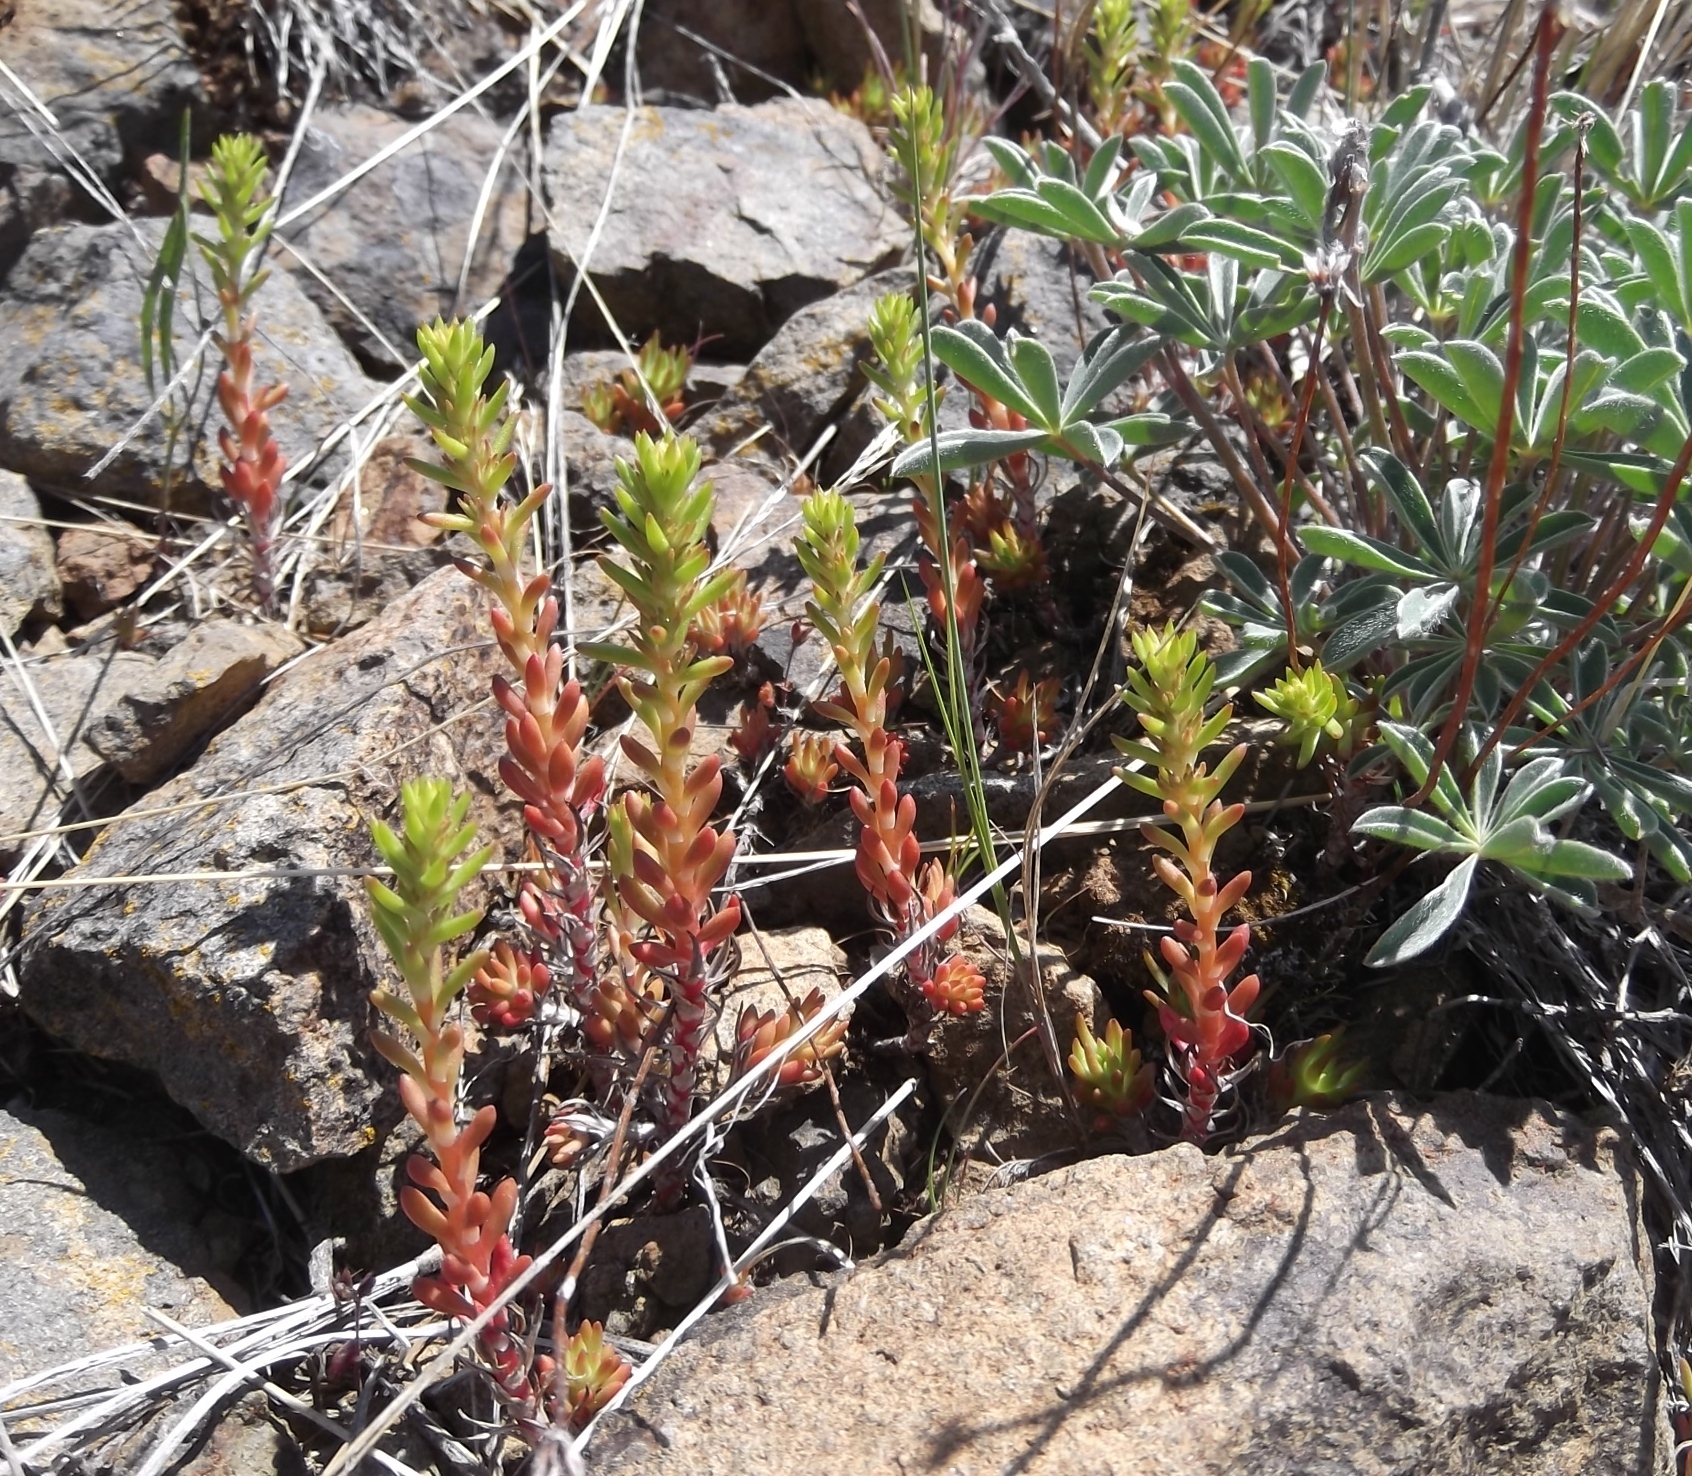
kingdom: Plantae
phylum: Tracheophyta
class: Magnoliopsida
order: Saxifragales
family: Crassulaceae
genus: Sedum
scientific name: Sedum stenopetalum
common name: Narrow-petaled stonecrop
